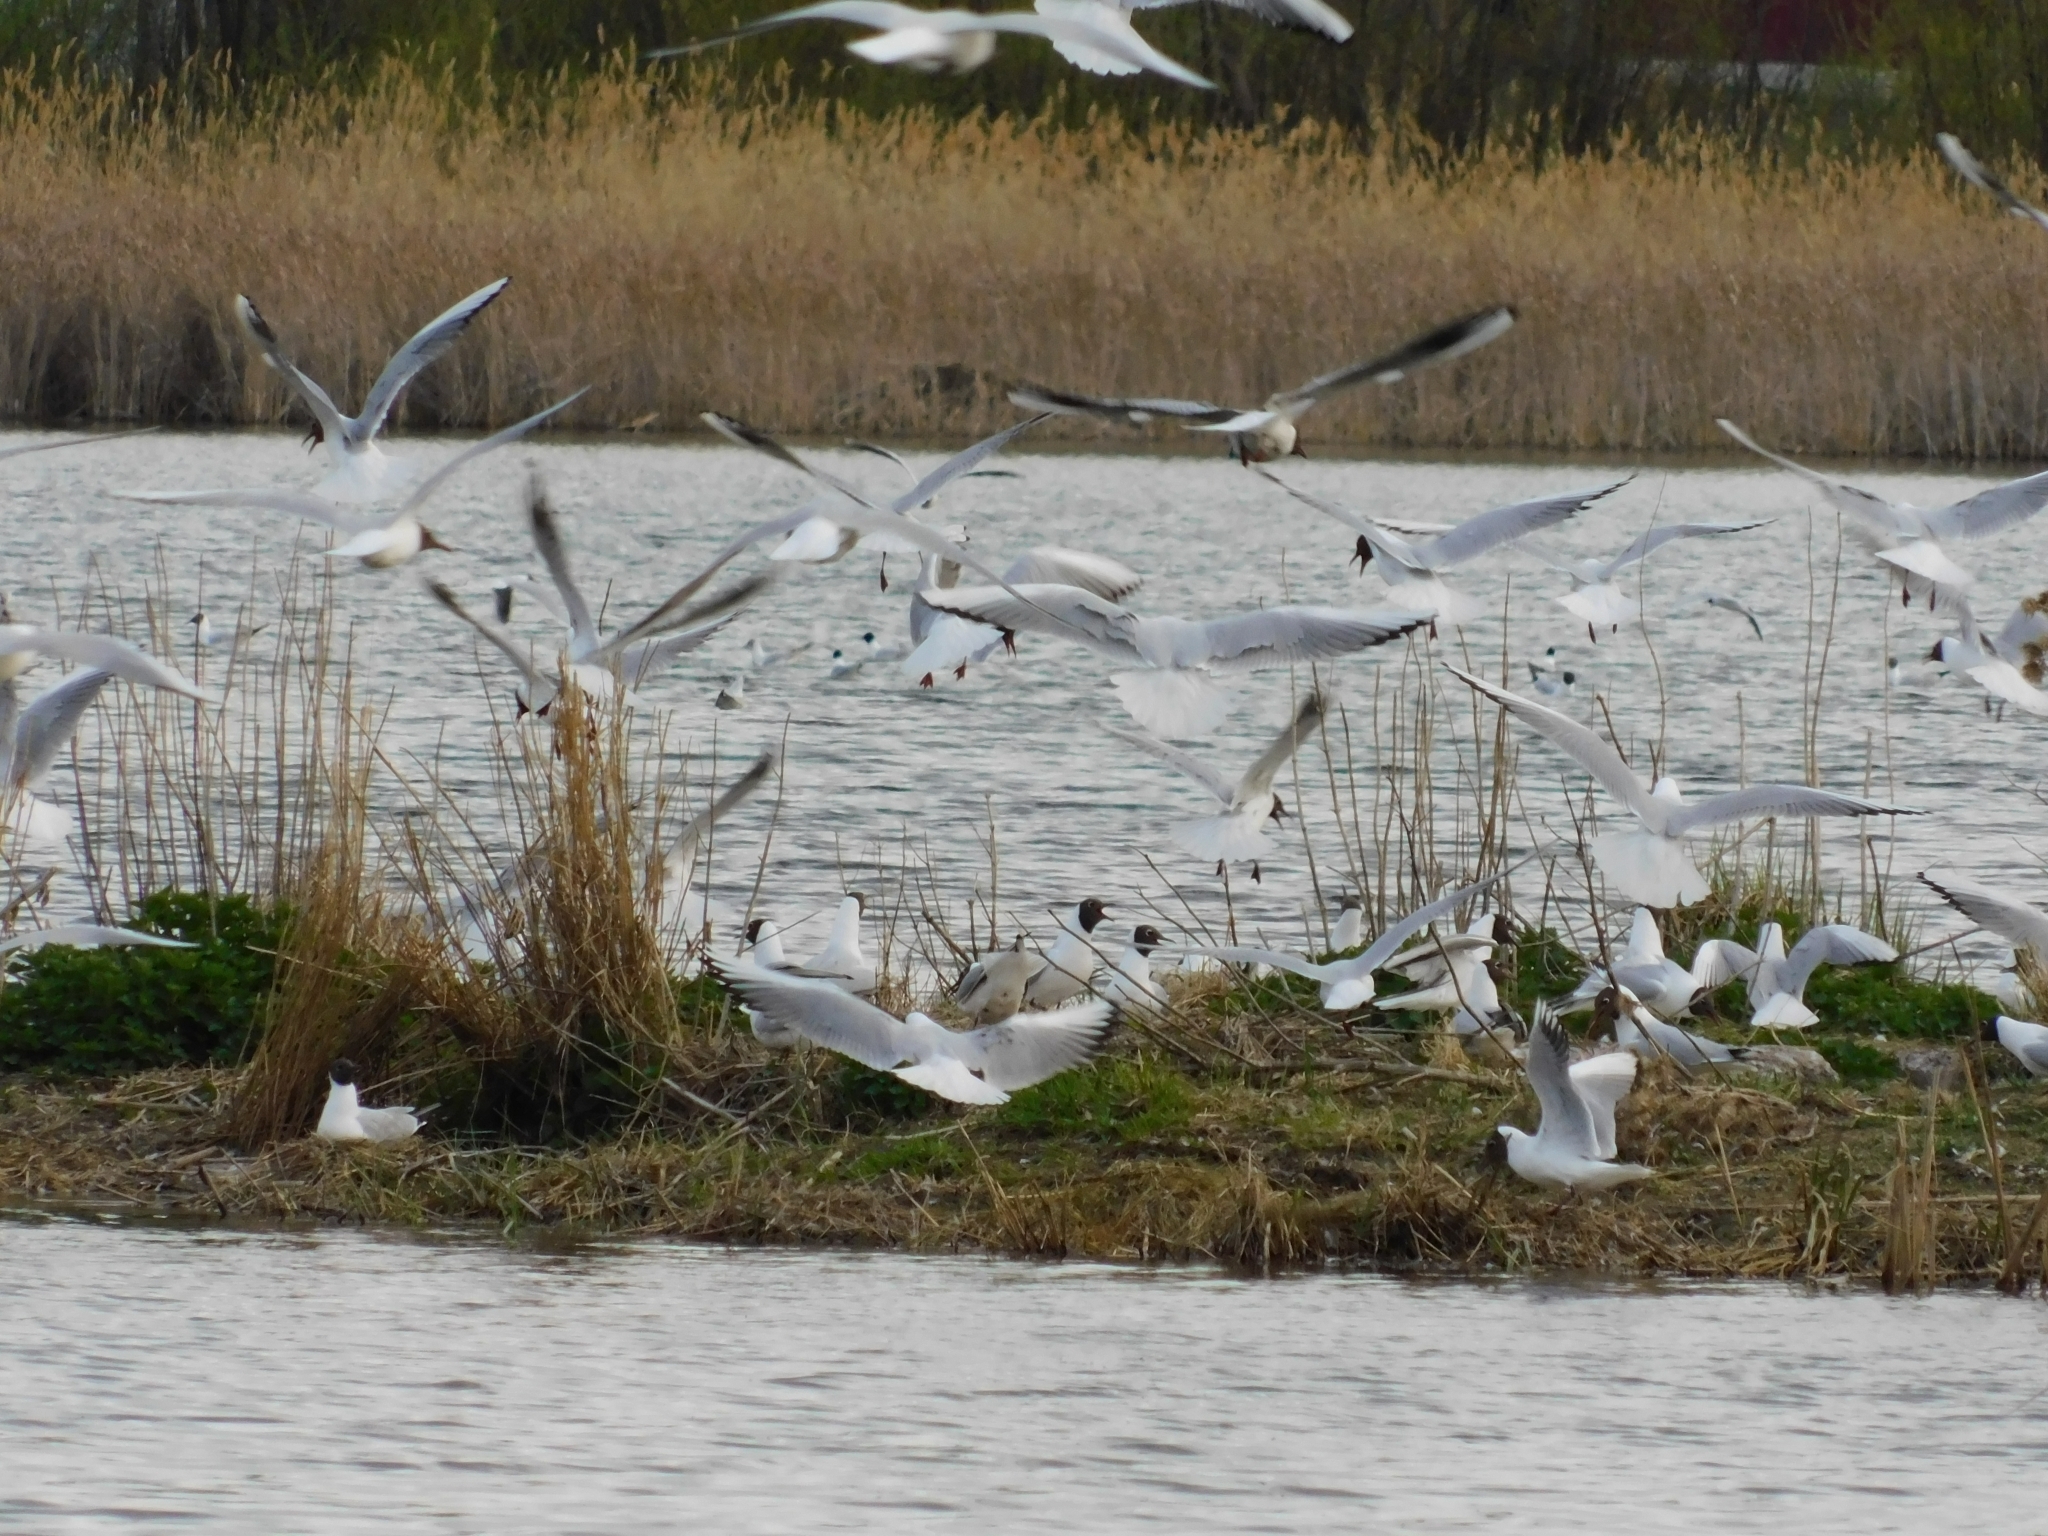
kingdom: Animalia
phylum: Chordata
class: Aves
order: Charadriiformes
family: Laridae
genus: Chroicocephalus
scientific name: Chroicocephalus ridibundus
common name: Black-headed gull
